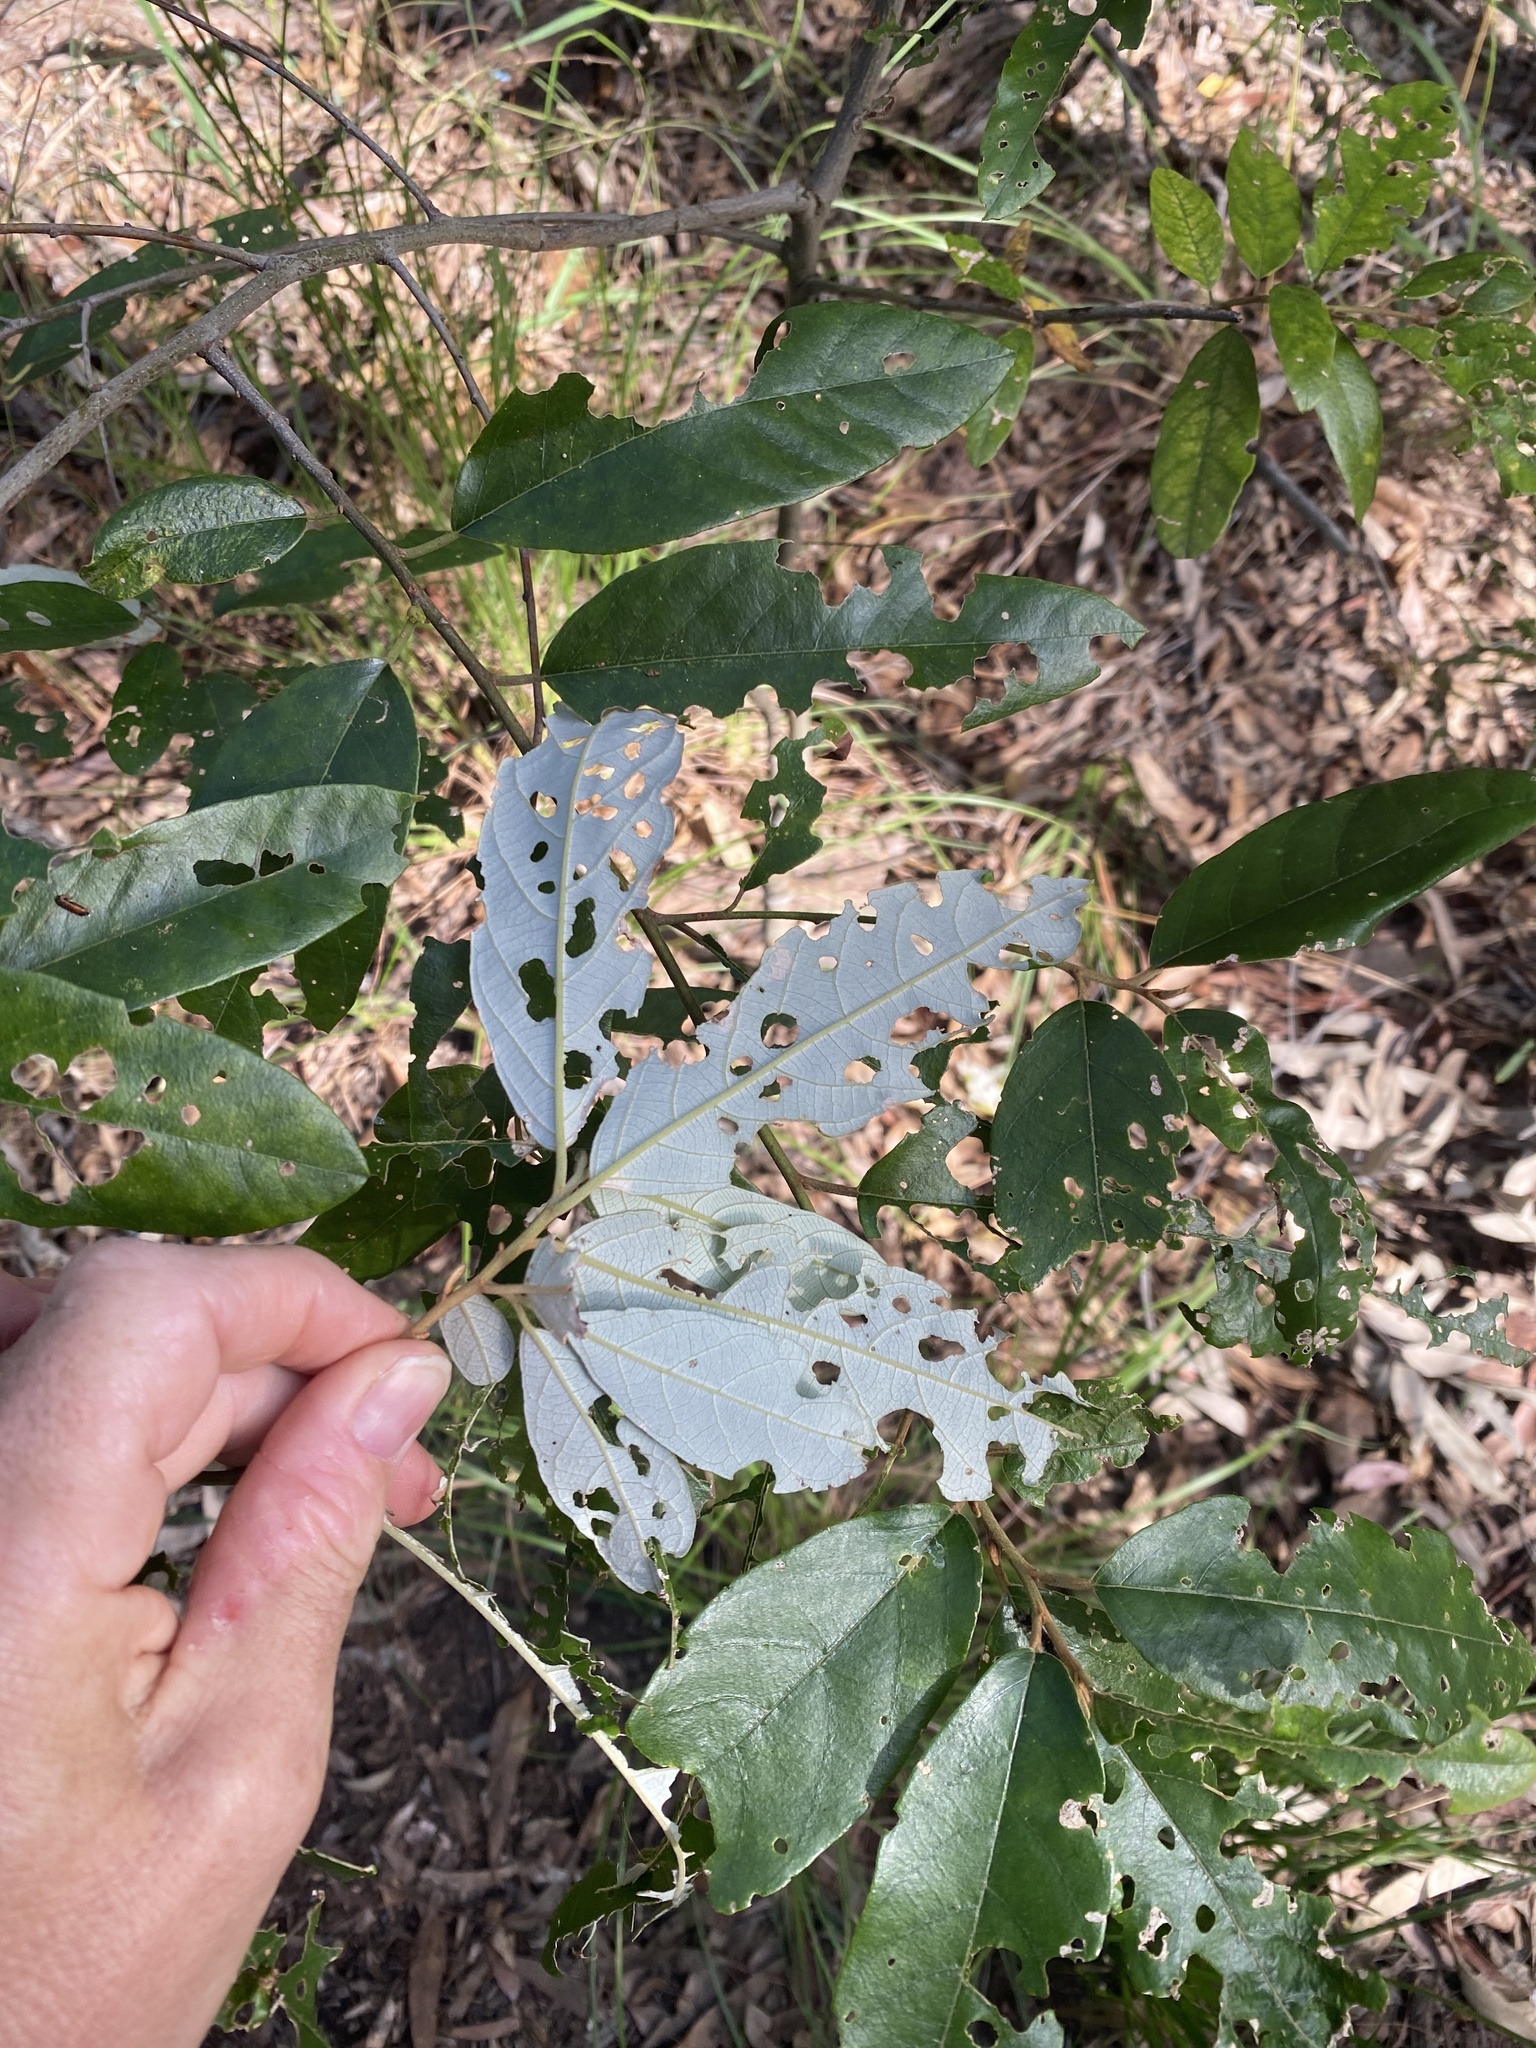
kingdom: Plantae
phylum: Tracheophyta
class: Magnoliopsida
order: Rosales
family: Rhamnaceae
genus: Alphitonia
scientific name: Alphitonia excelsa
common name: Red ash
